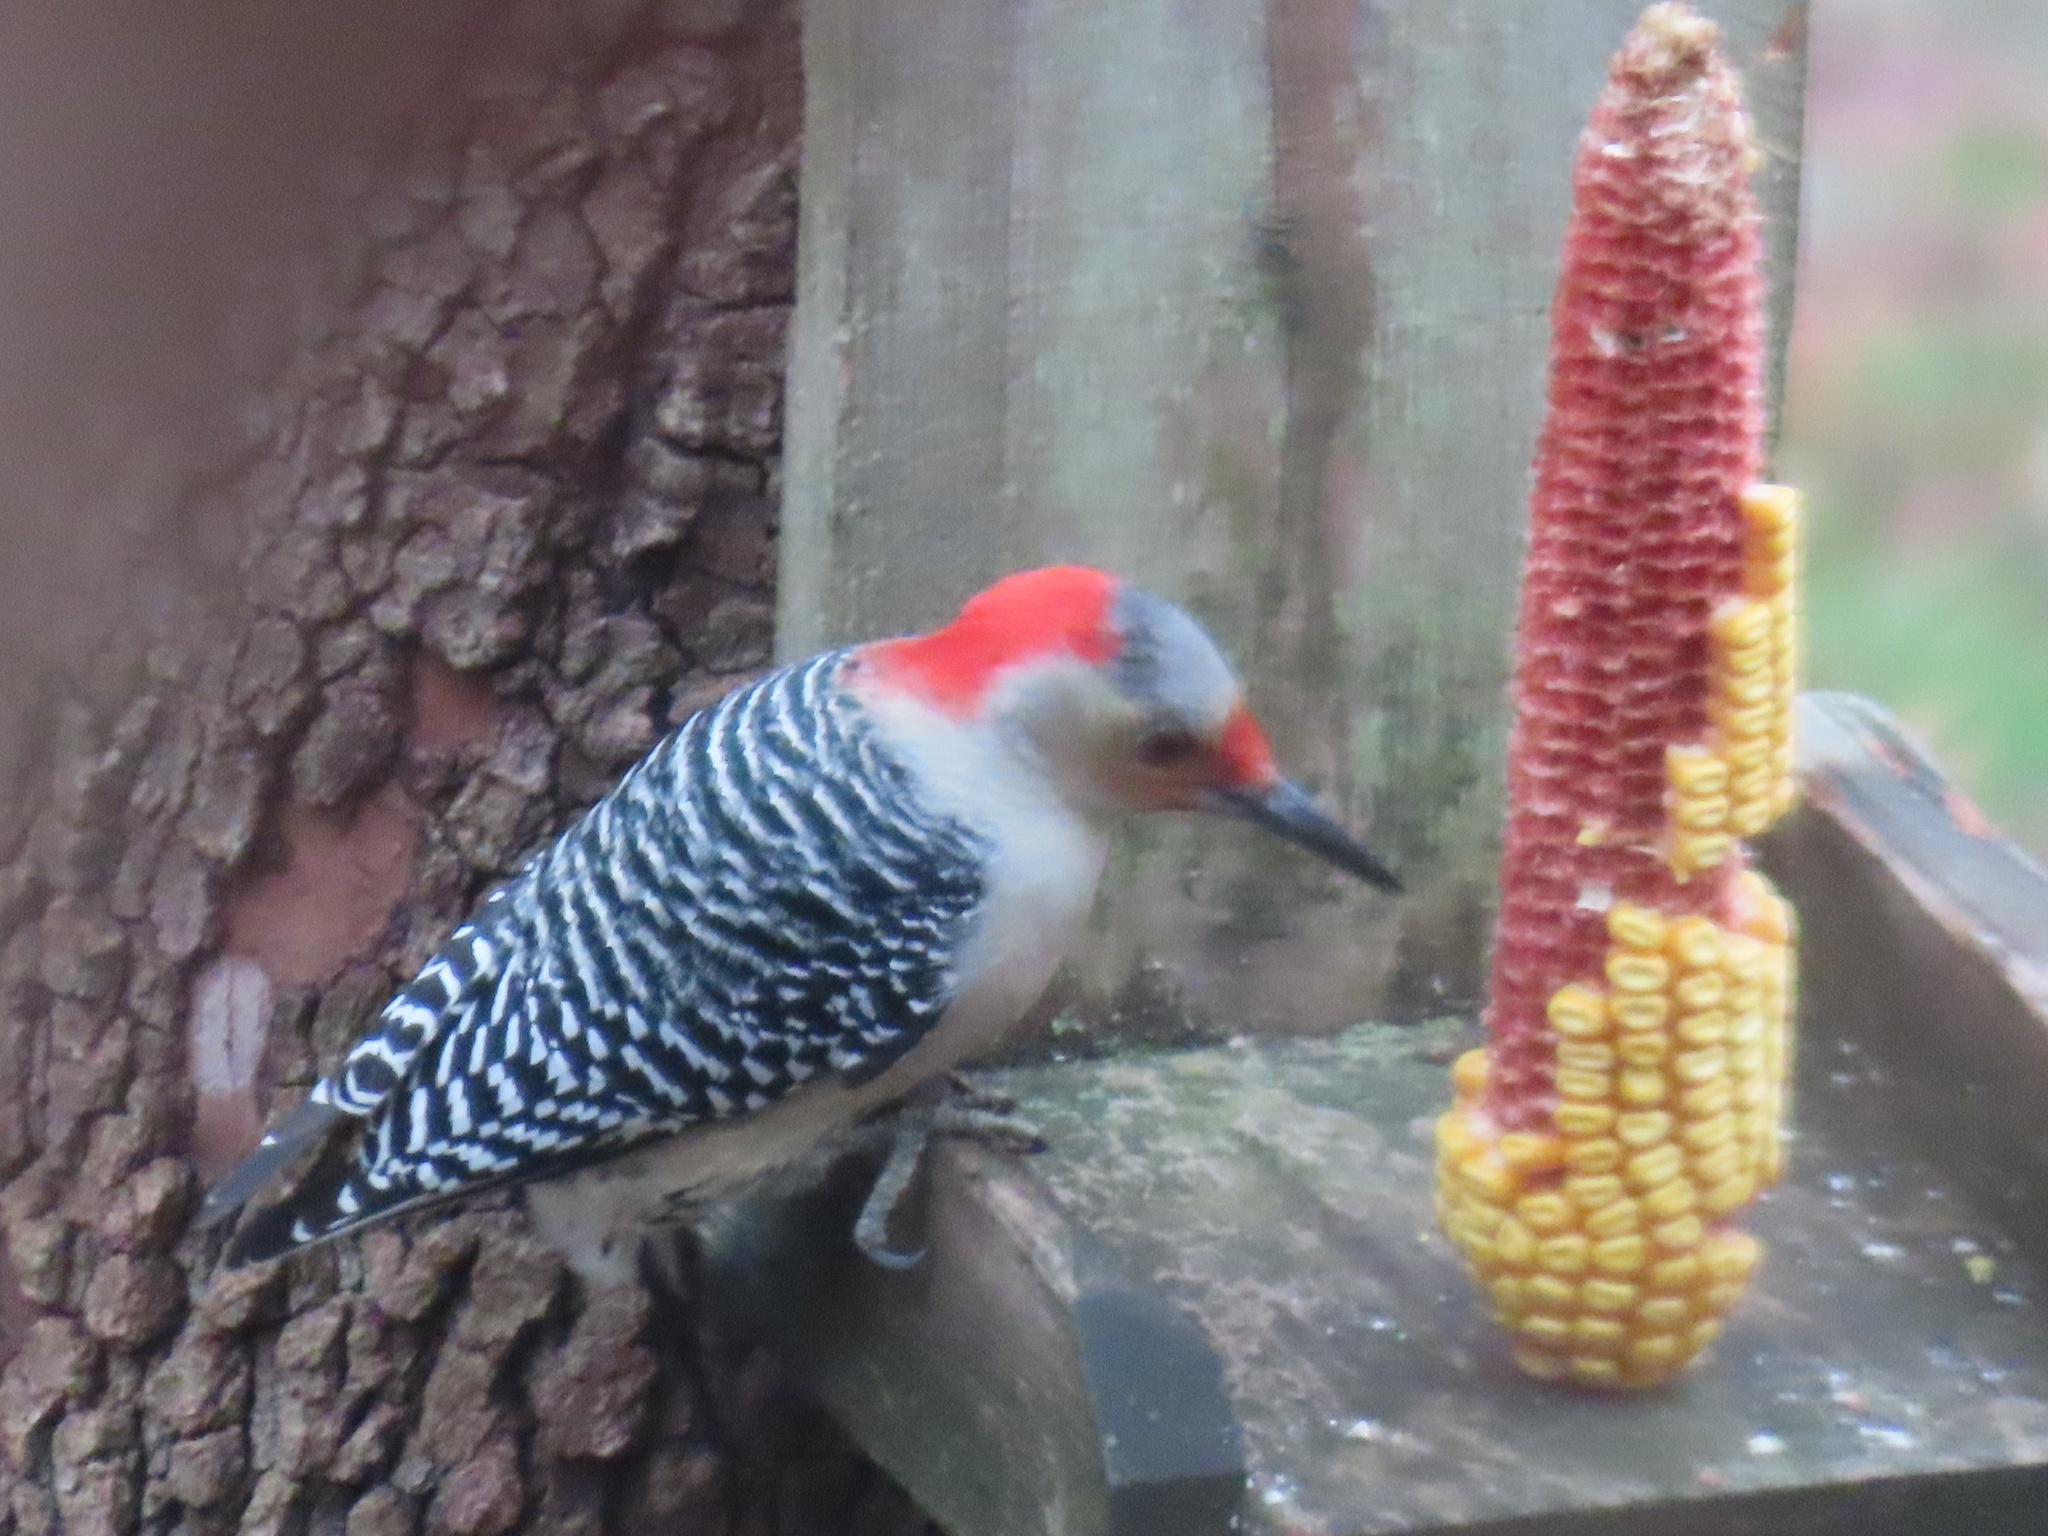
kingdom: Animalia
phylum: Chordata
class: Aves
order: Piciformes
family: Picidae
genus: Melanerpes
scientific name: Melanerpes carolinus
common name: Red-bellied woodpecker
